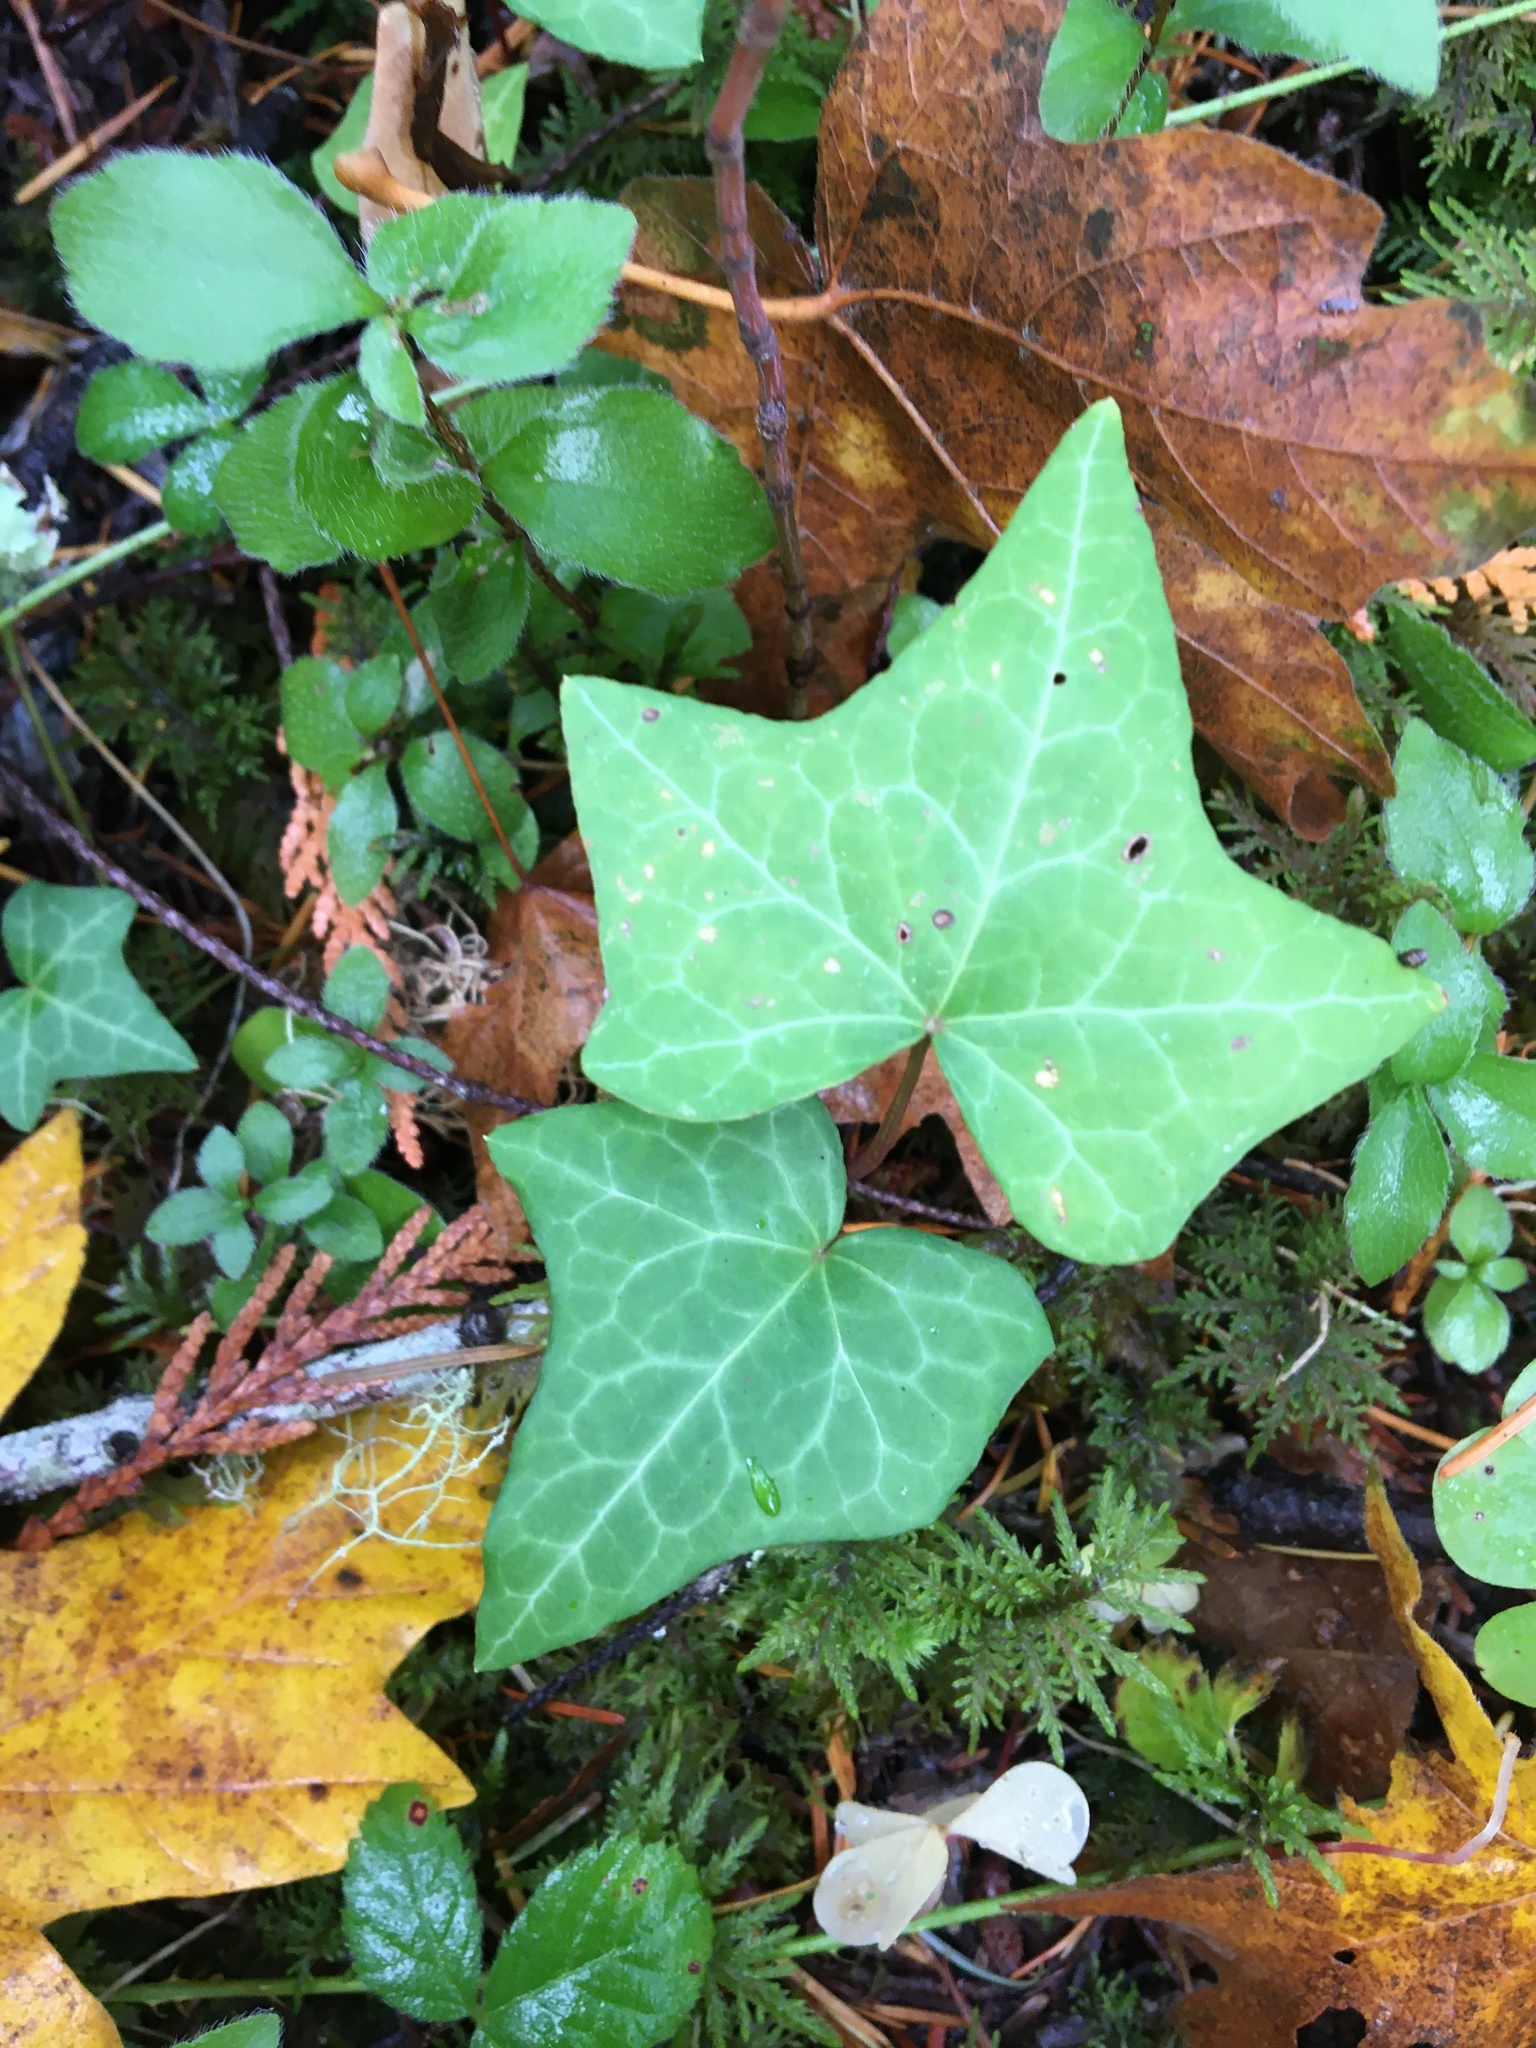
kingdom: Plantae
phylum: Tracheophyta
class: Magnoliopsida
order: Apiales
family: Araliaceae
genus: Hedera
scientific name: Hedera helix
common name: Ivy
